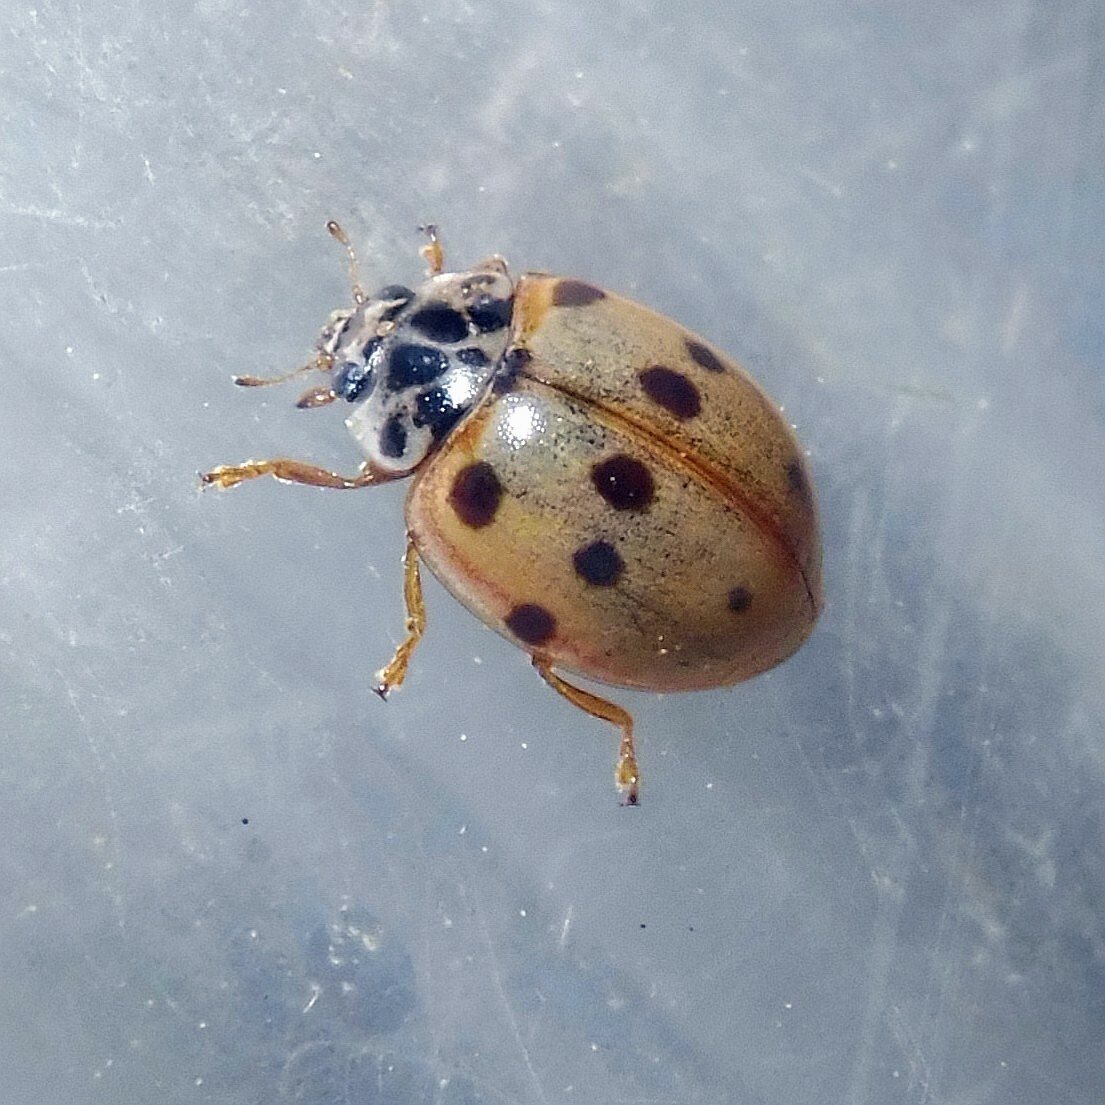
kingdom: Animalia
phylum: Arthropoda
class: Insecta
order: Coleoptera
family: Coccinellidae
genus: Adalia
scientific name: Adalia decempunctata
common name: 10-spot ladybird
